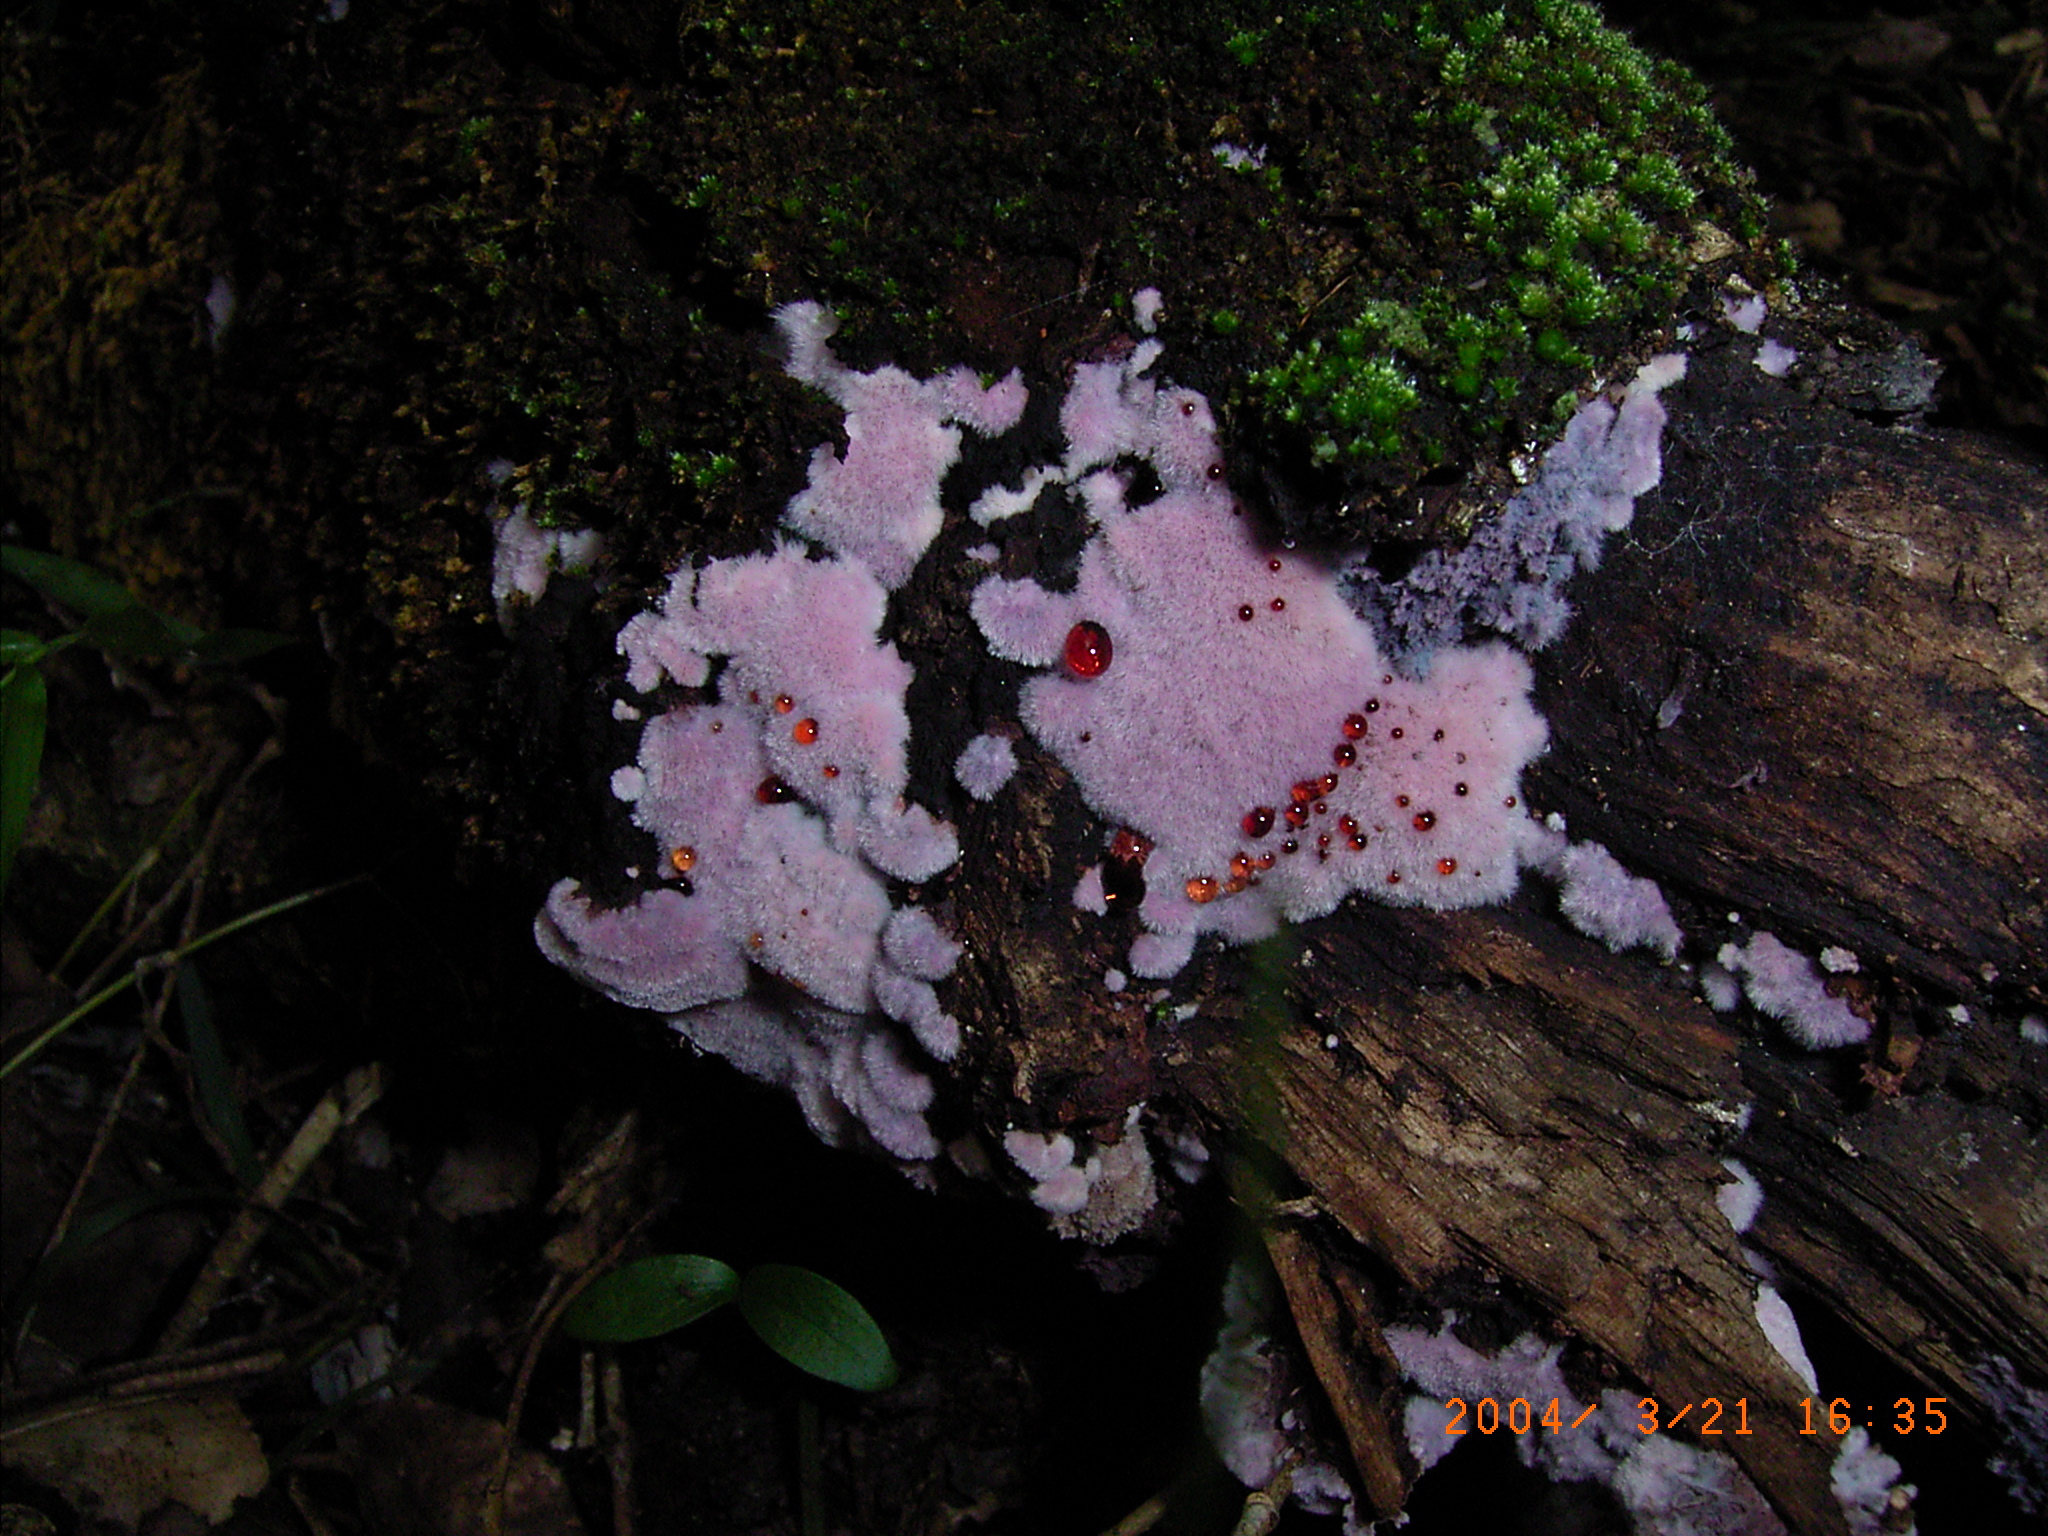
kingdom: Fungi
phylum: Basidiomycota
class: Agaricomycetes
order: Corticiales
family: Punctulariaceae
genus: Punctularia
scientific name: Punctularia atropurpurascens
